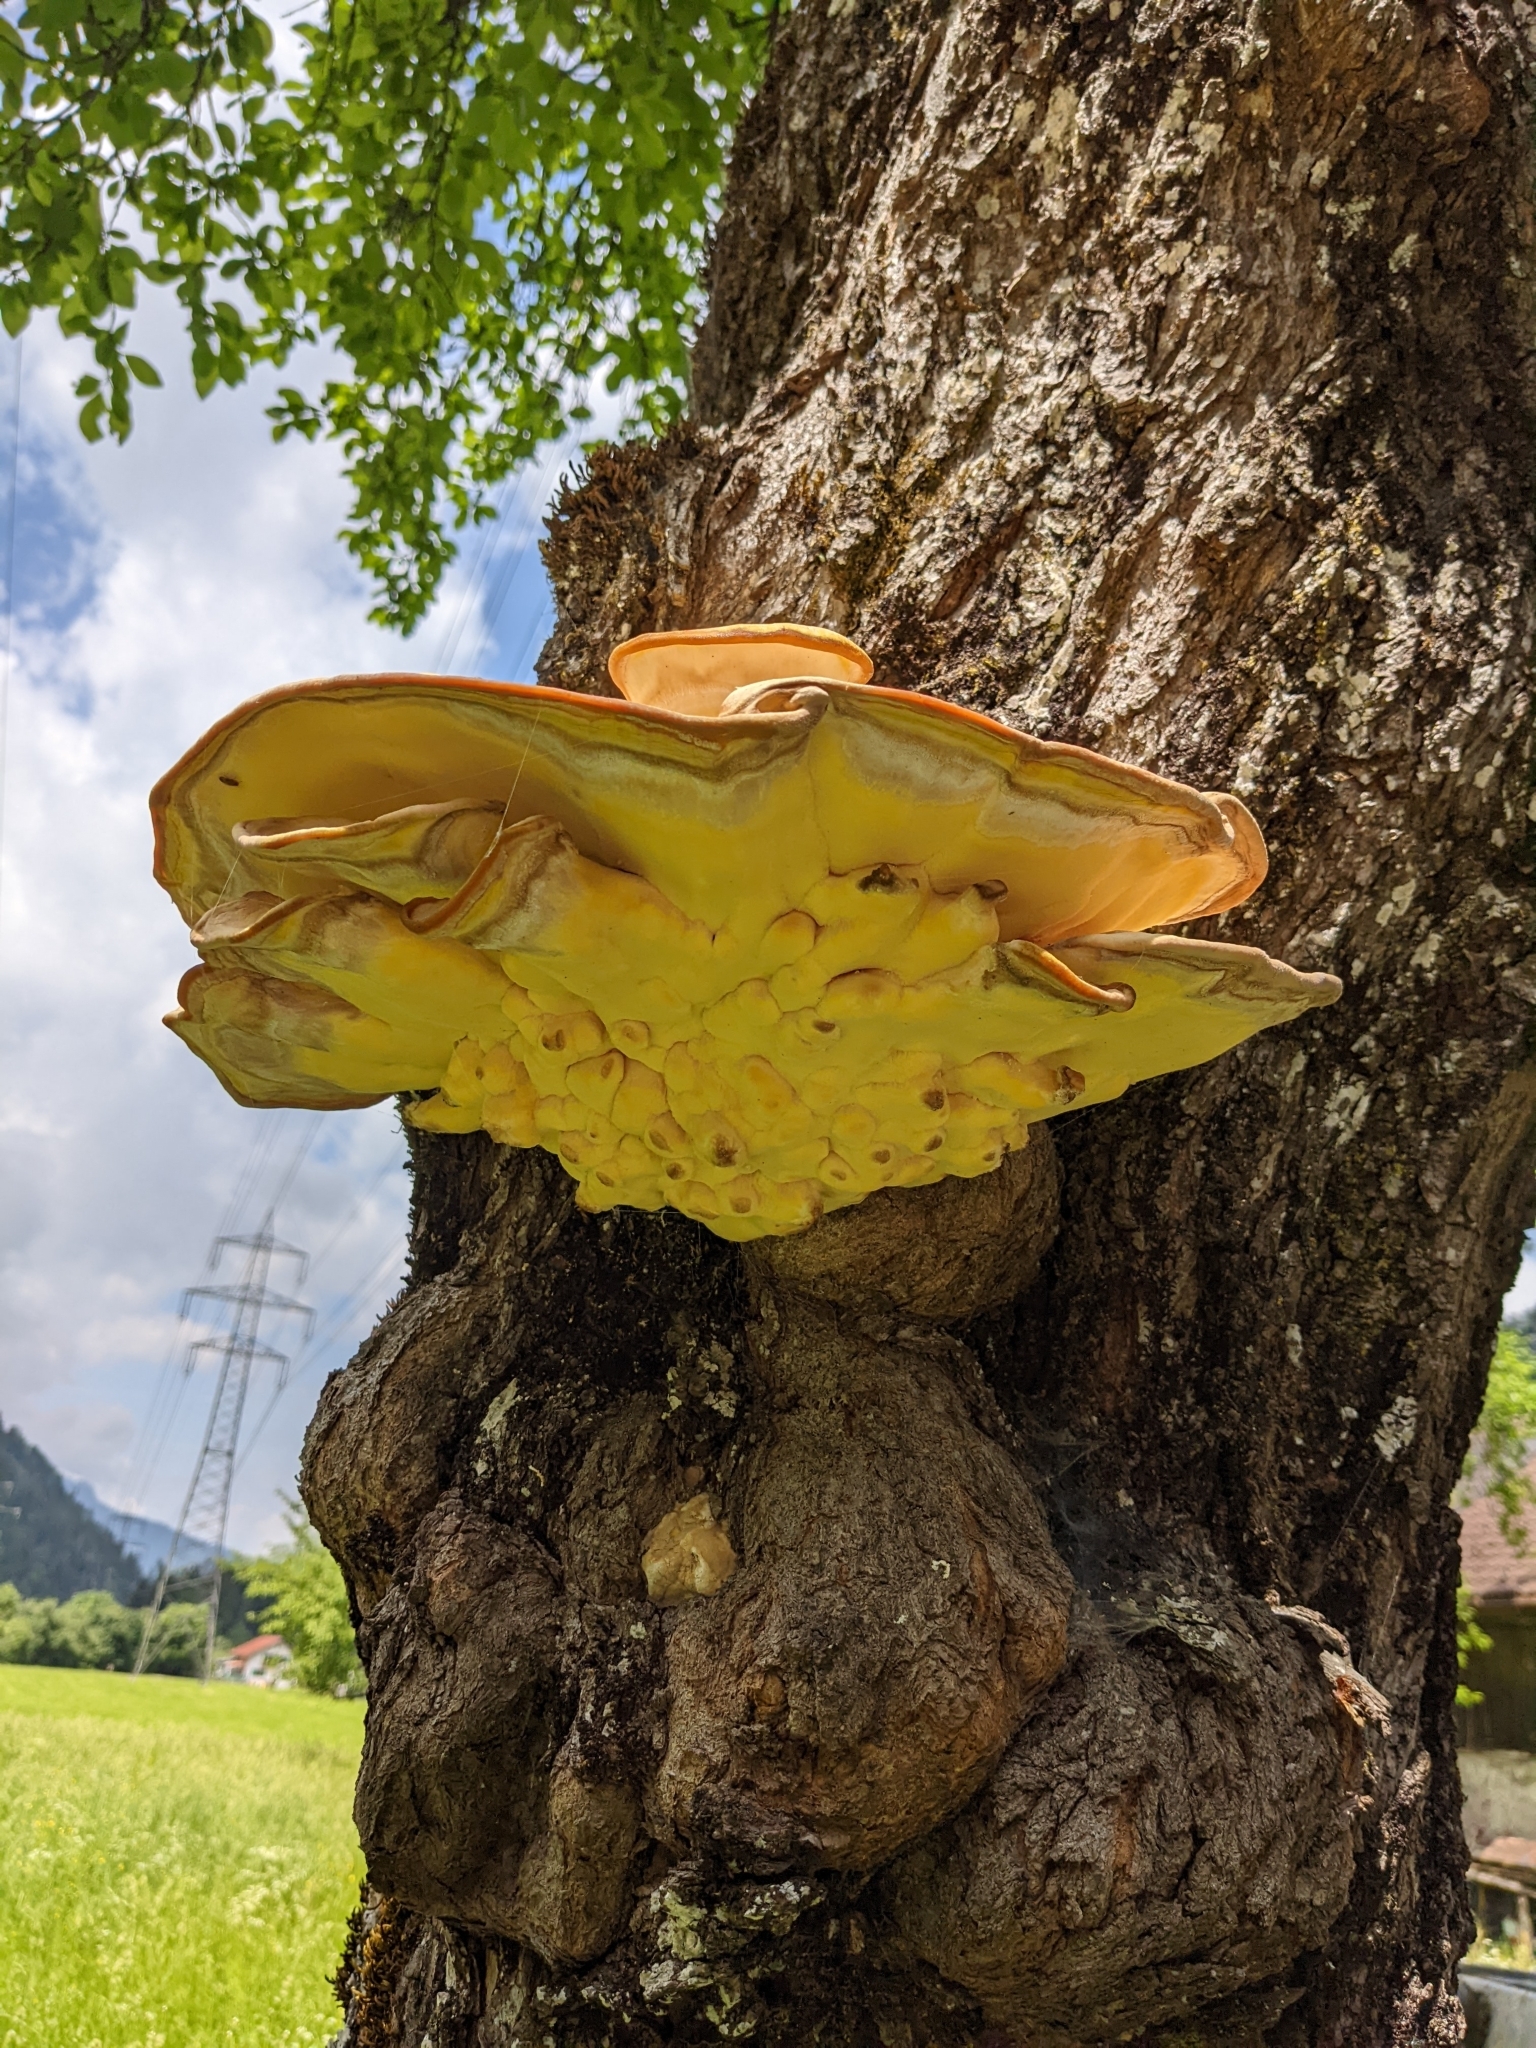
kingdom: Fungi
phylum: Basidiomycota
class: Agaricomycetes
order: Polyporales
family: Laetiporaceae
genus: Laetiporus
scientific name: Laetiporus sulphureus
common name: Chicken of the woods
